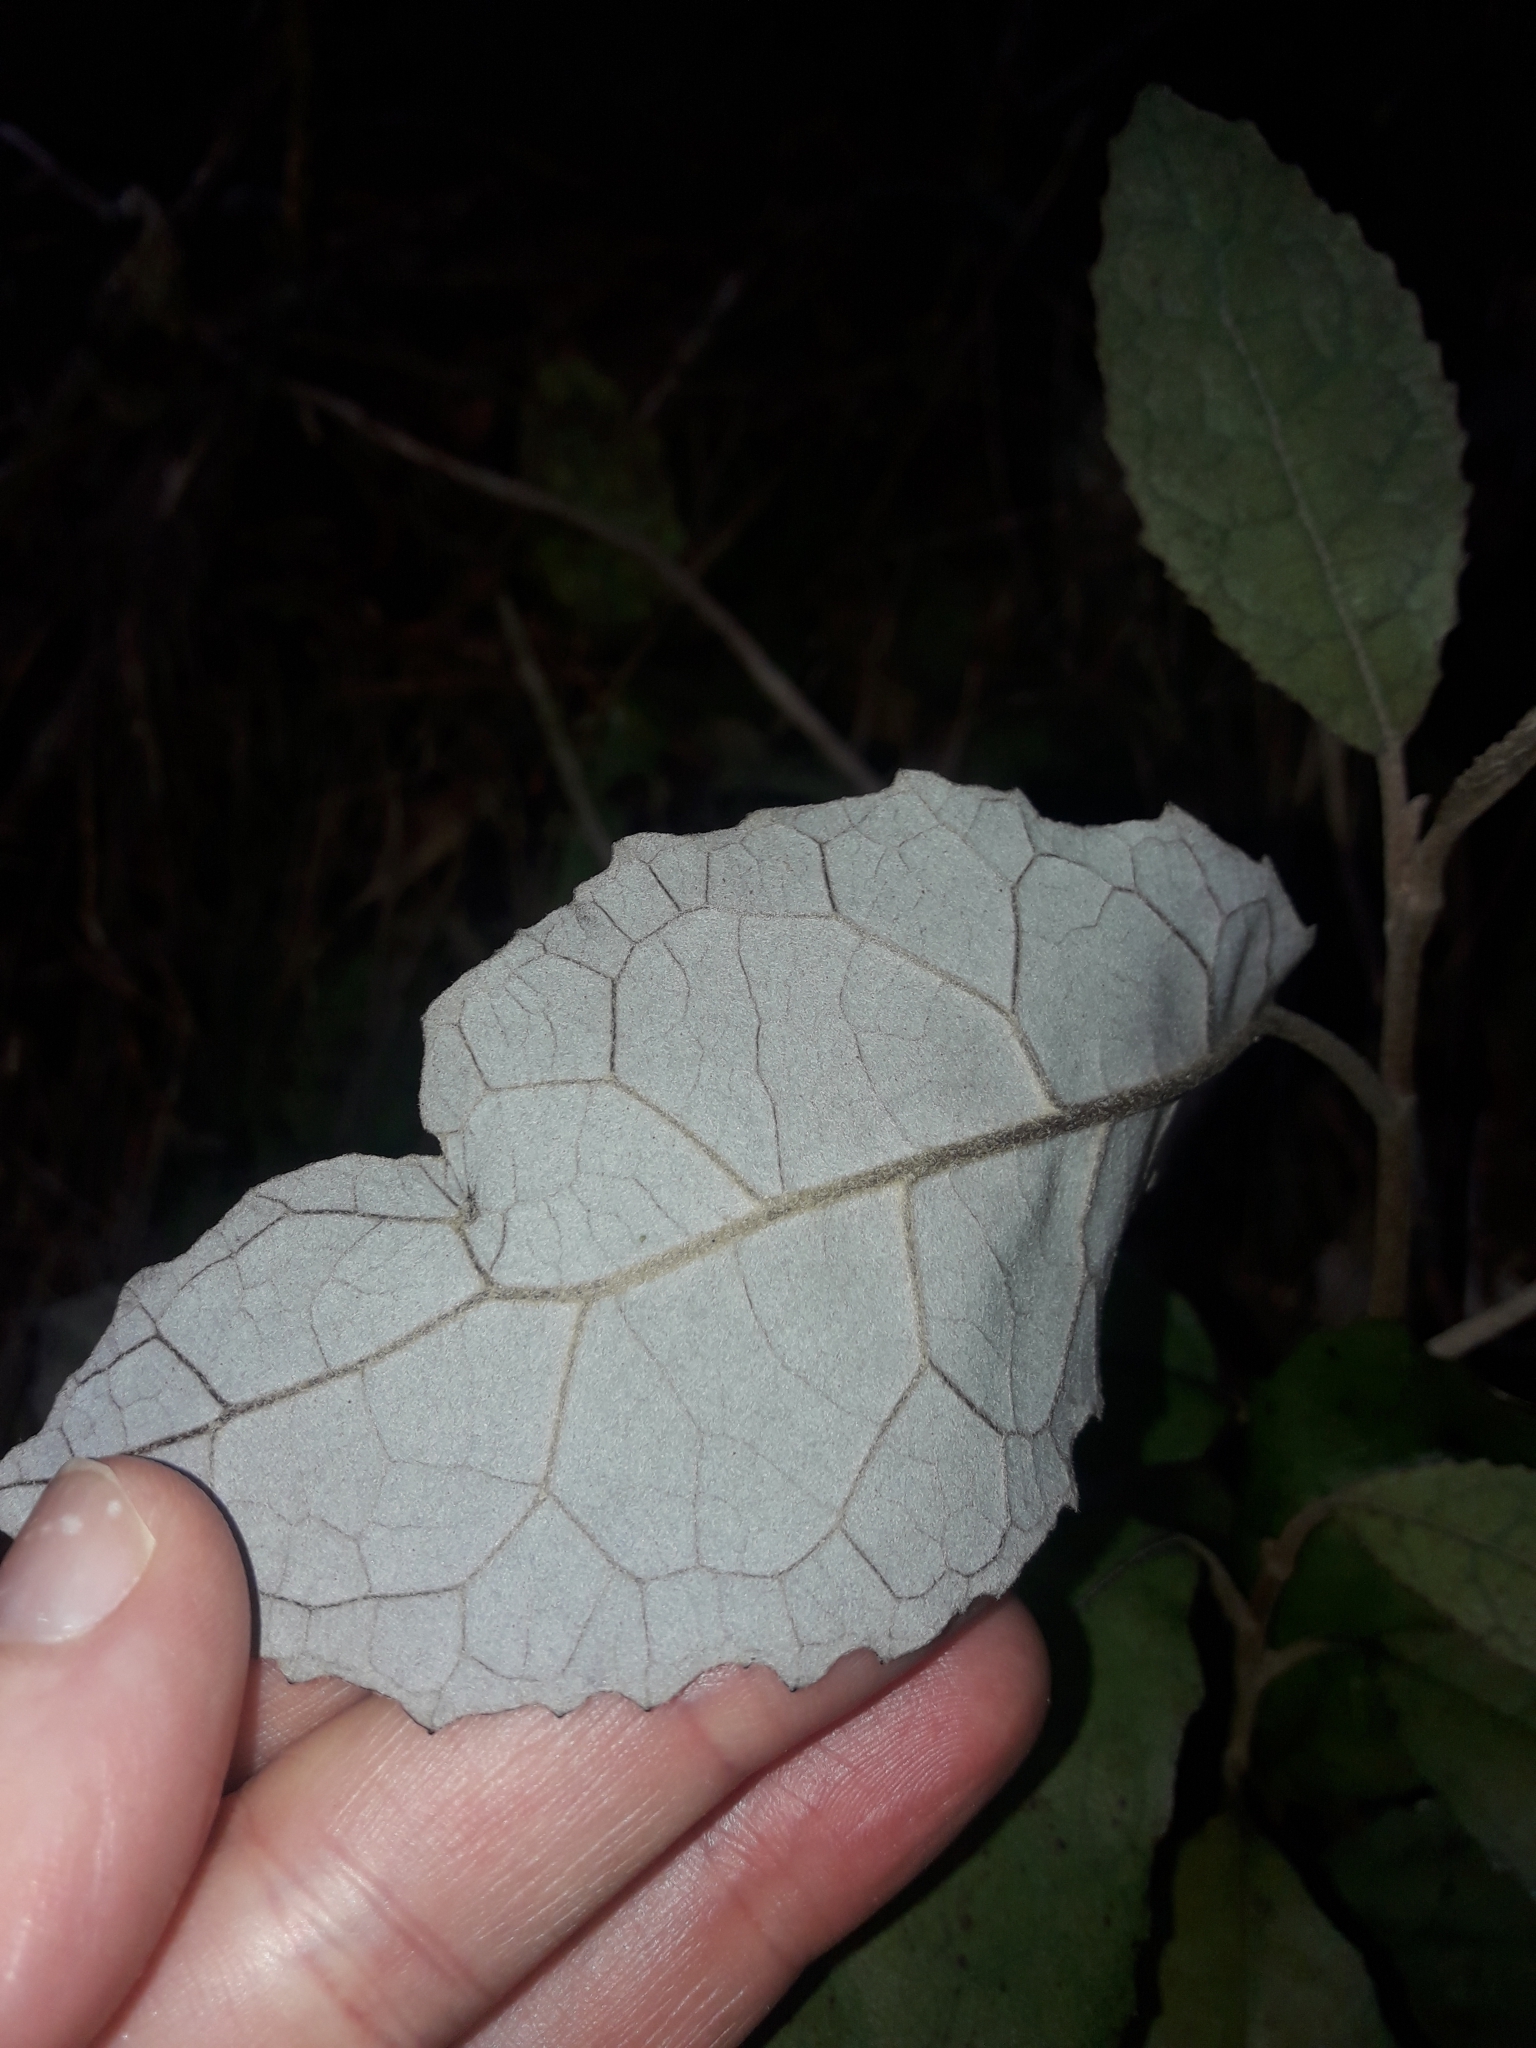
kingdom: Plantae
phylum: Tracheophyta
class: Magnoliopsida
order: Asterales
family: Asteraceae
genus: Olearia
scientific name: Olearia rani
